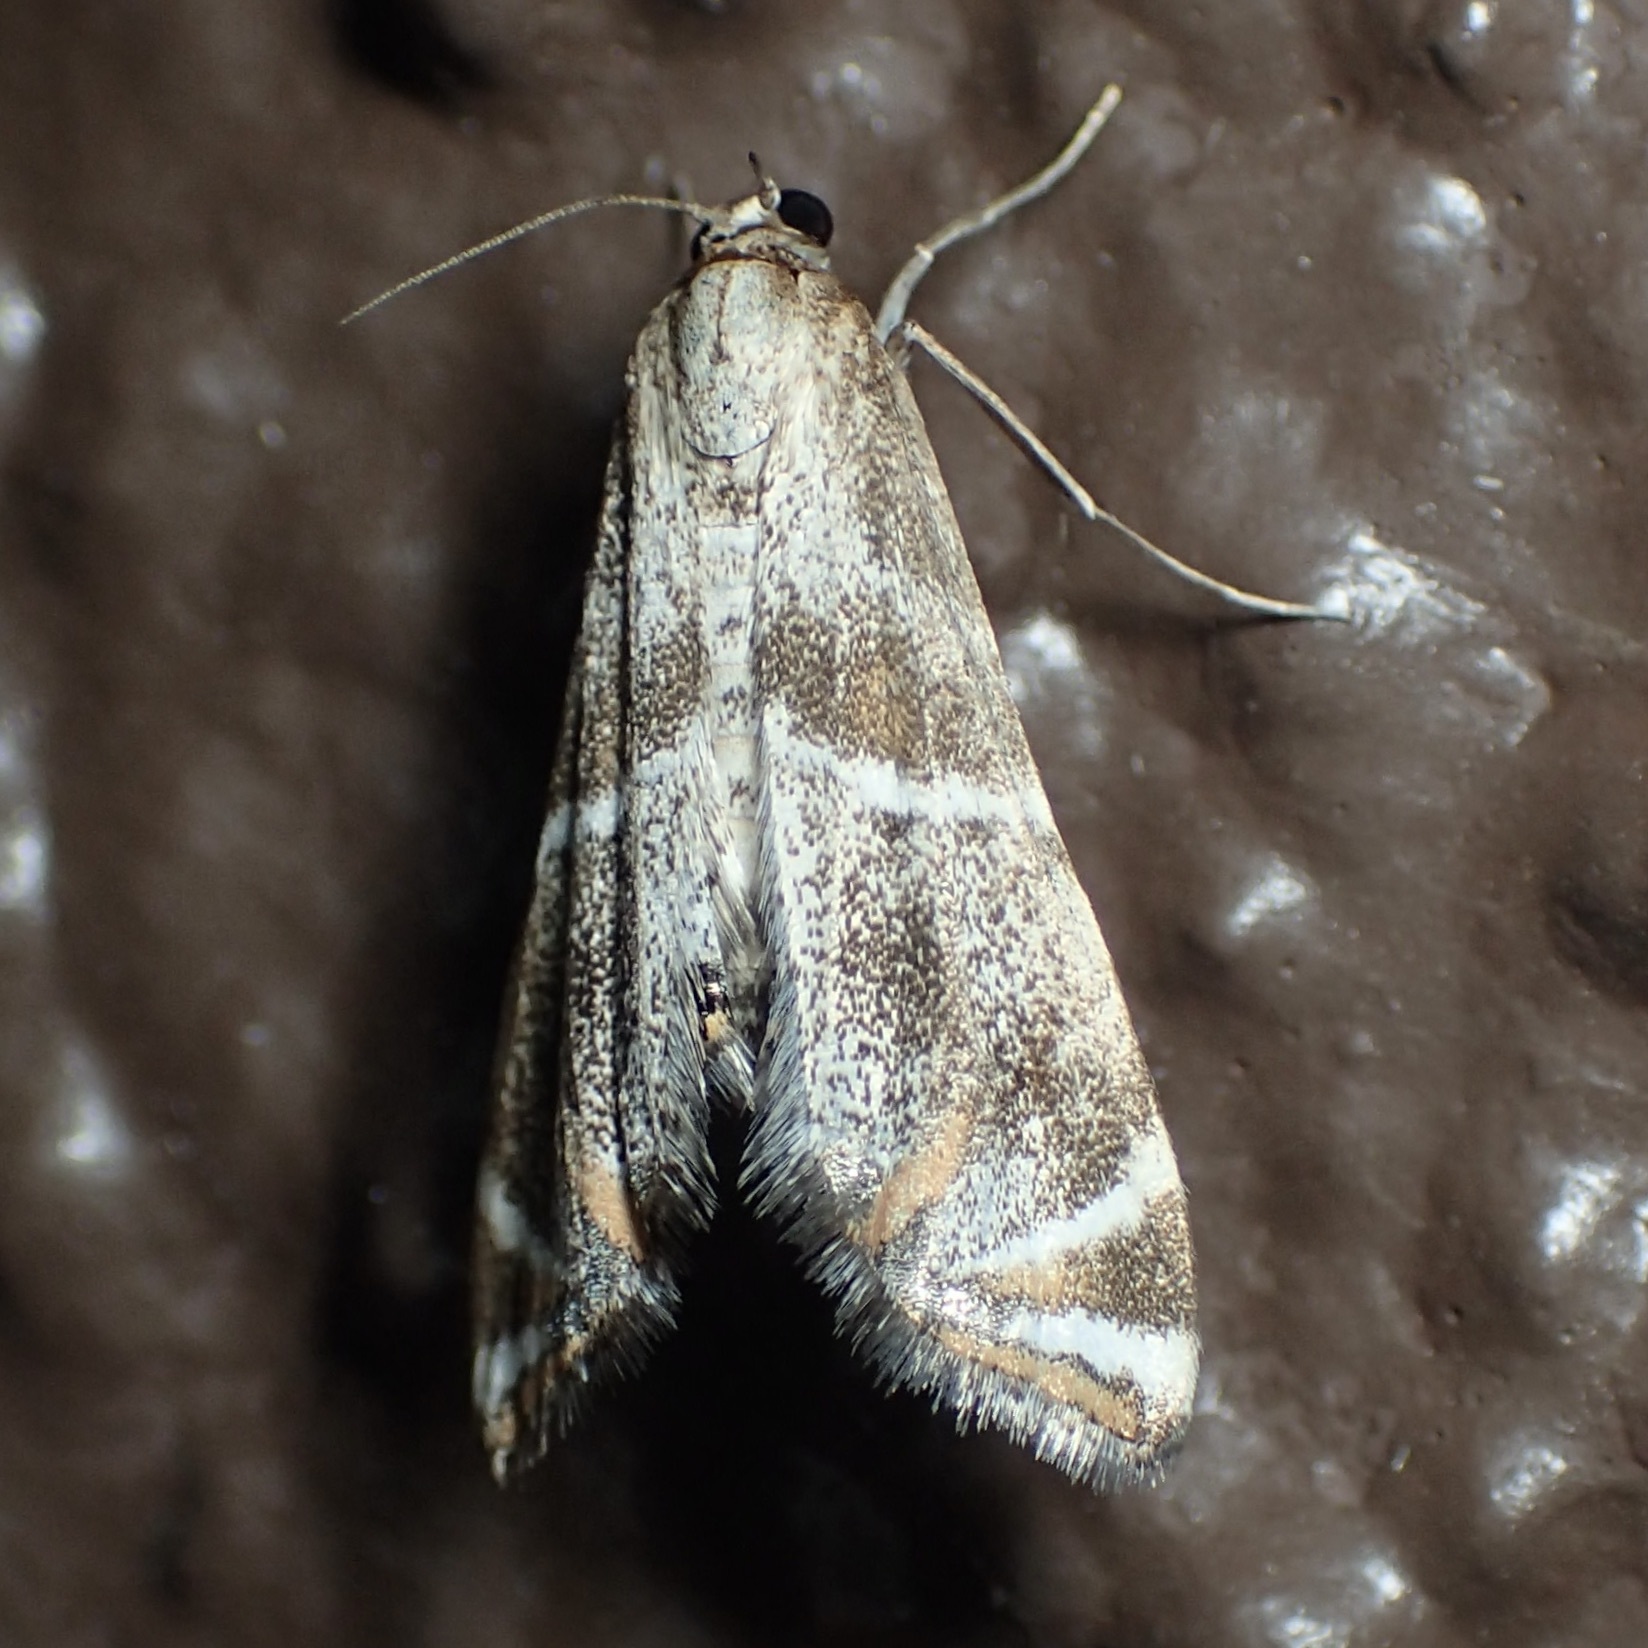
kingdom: Animalia
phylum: Arthropoda
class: Insecta
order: Lepidoptera
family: Crambidae
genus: Petrophila
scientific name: Petrophila jaliscalis
